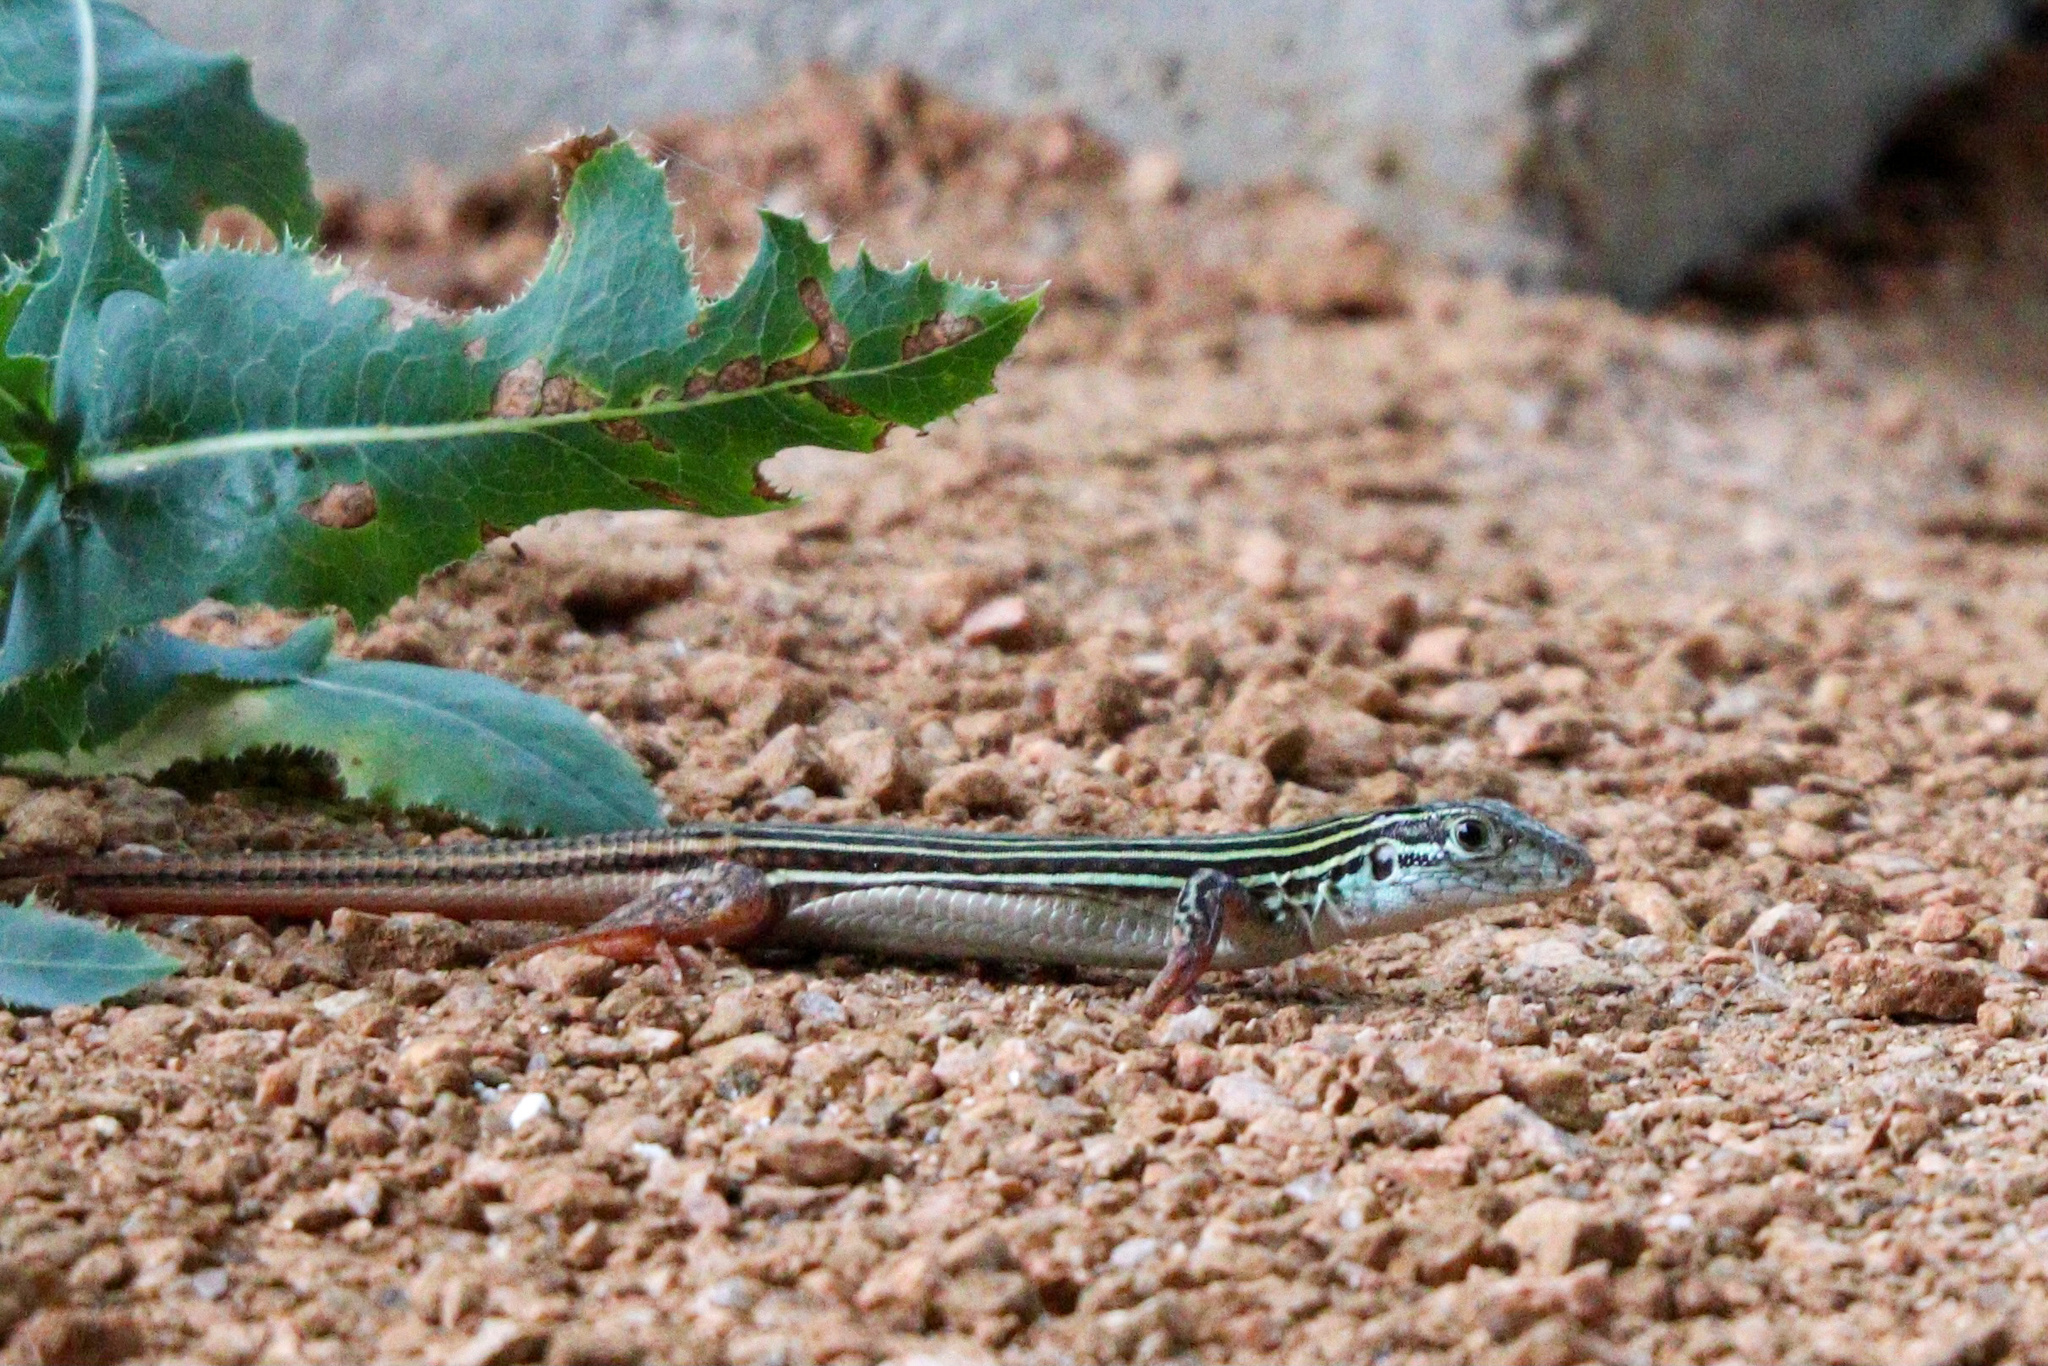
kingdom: Animalia
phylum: Chordata
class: Squamata
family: Teiidae
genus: Aspidoscelis
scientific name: Aspidoscelis gularis
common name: Eastern spotted whiptail
